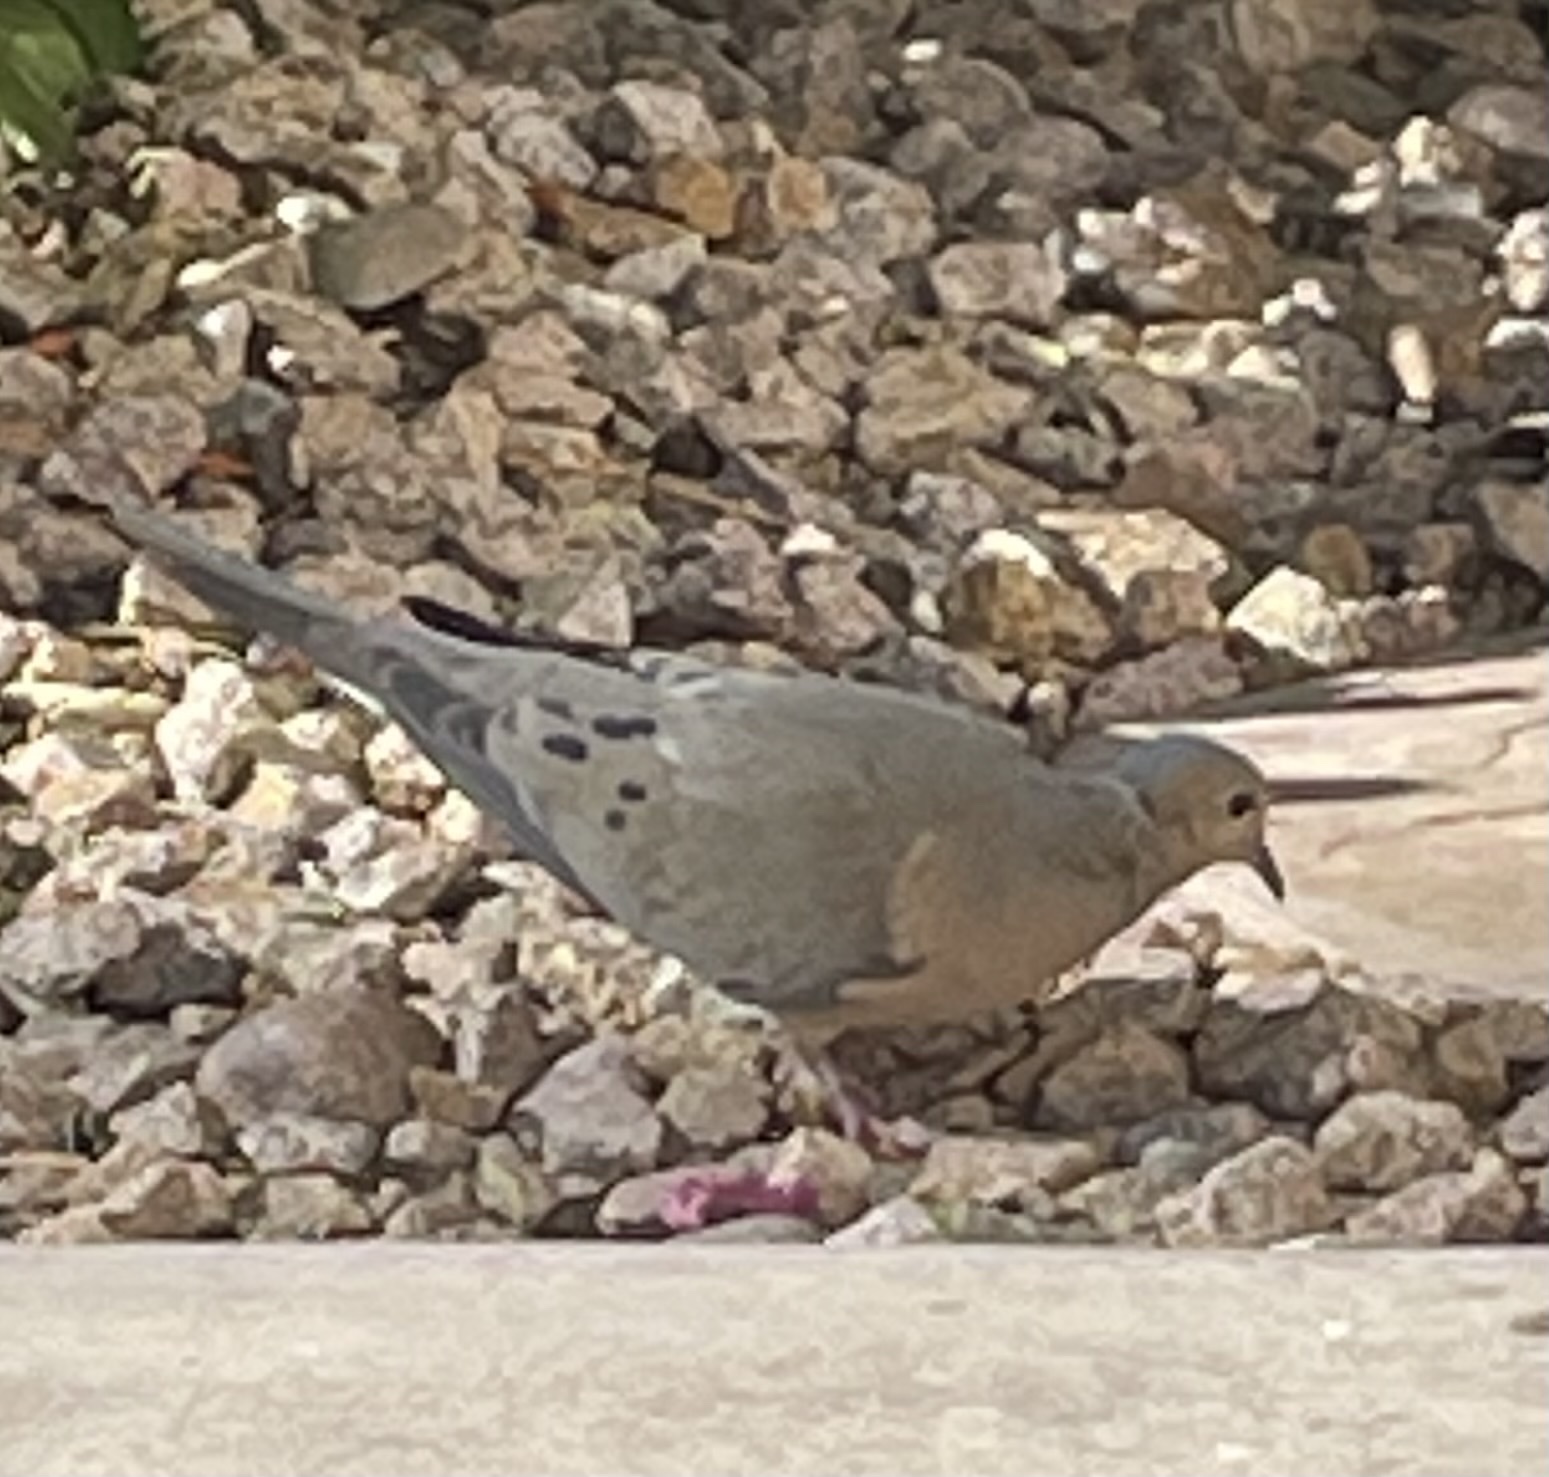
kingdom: Animalia
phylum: Chordata
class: Aves
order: Columbiformes
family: Columbidae
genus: Zenaida
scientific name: Zenaida macroura
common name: Mourning dove
